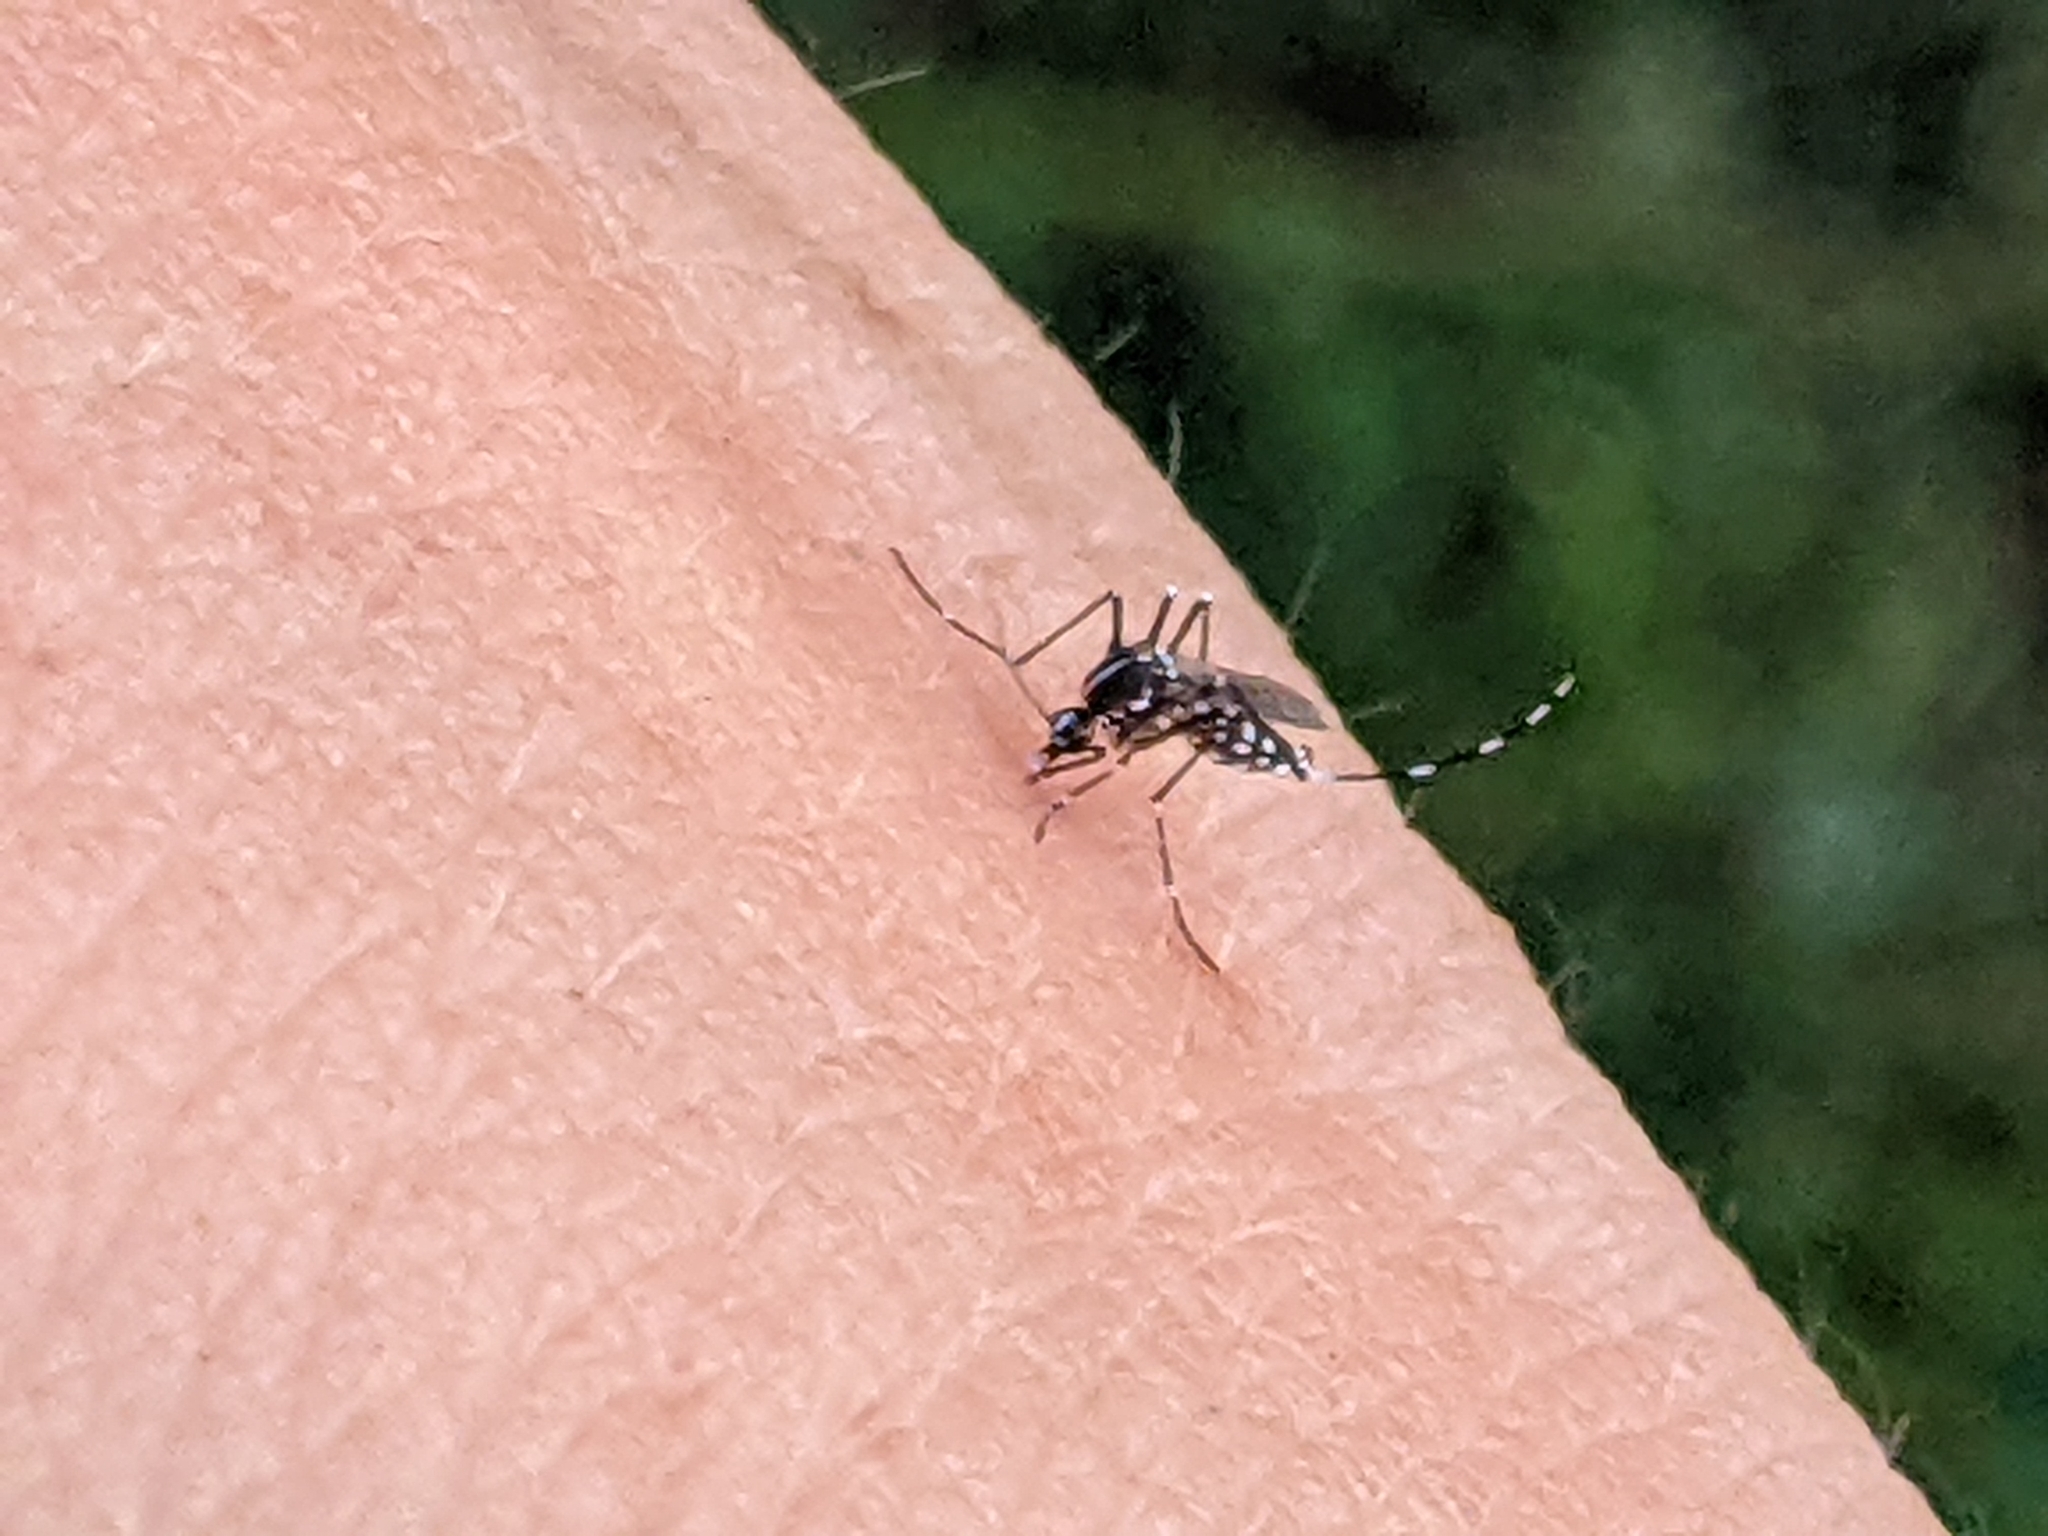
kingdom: Animalia
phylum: Arthropoda
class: Insecta
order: Diptera
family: Culicidae
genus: Aedes
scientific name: Aedes albopictus
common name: Tiger mosquito
